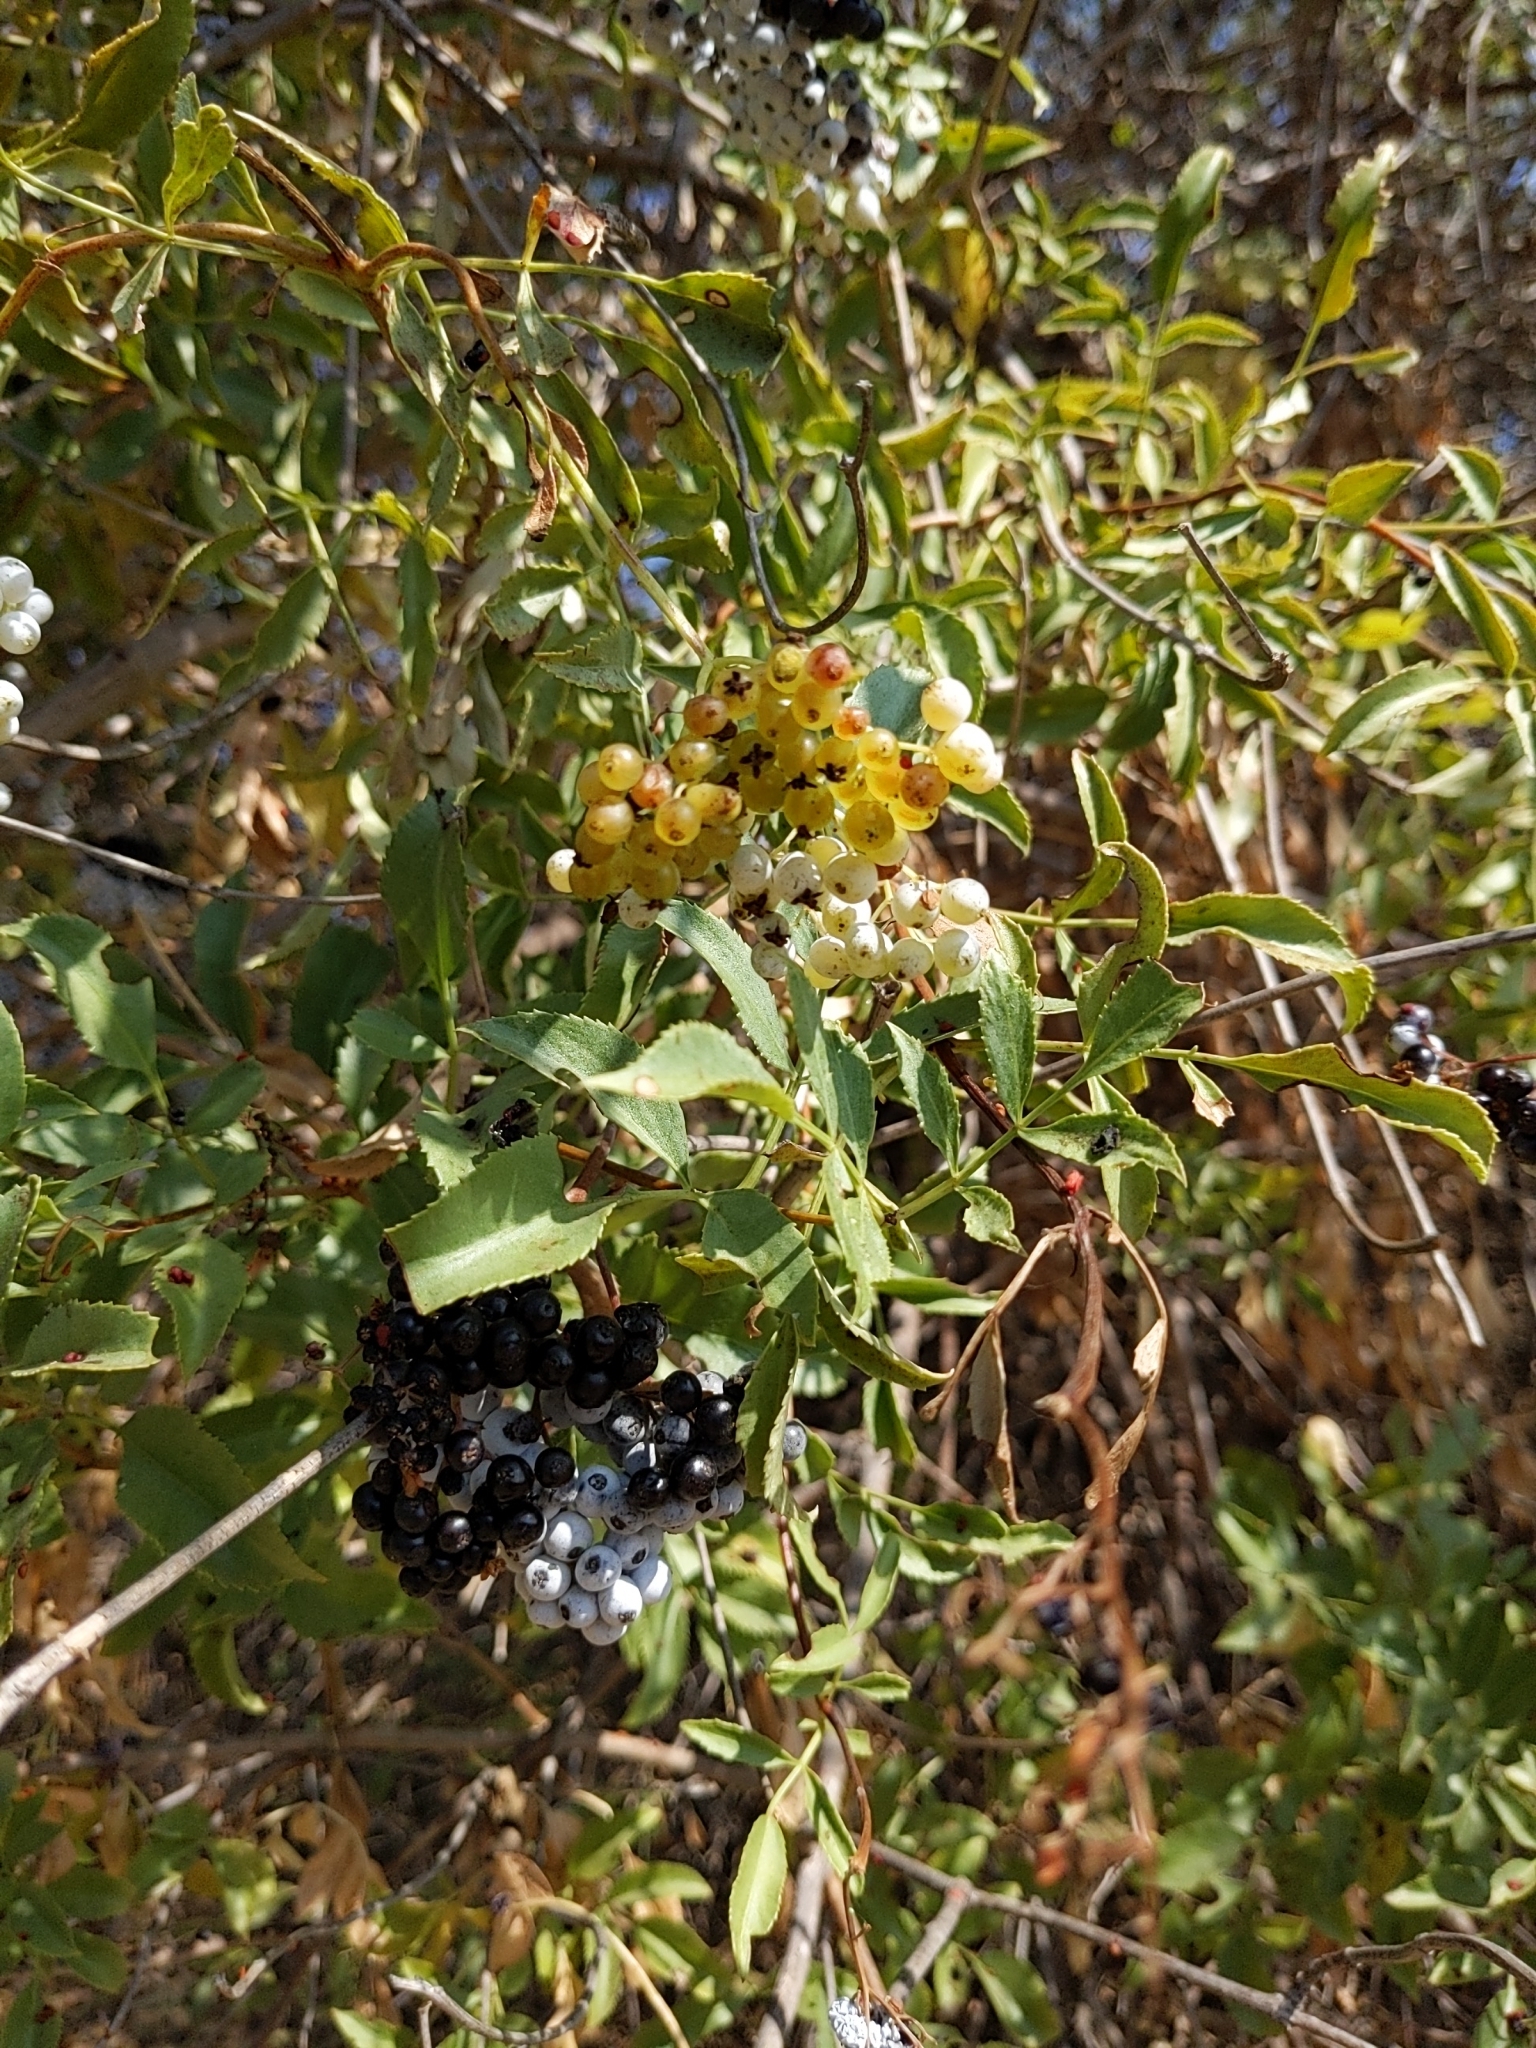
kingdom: Plantae
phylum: Tracheophyta
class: Magnoliopsida
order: Dipsacales
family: Viburnaceae
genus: Sambucus
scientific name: Sambucus cerulea
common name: Blue elder
